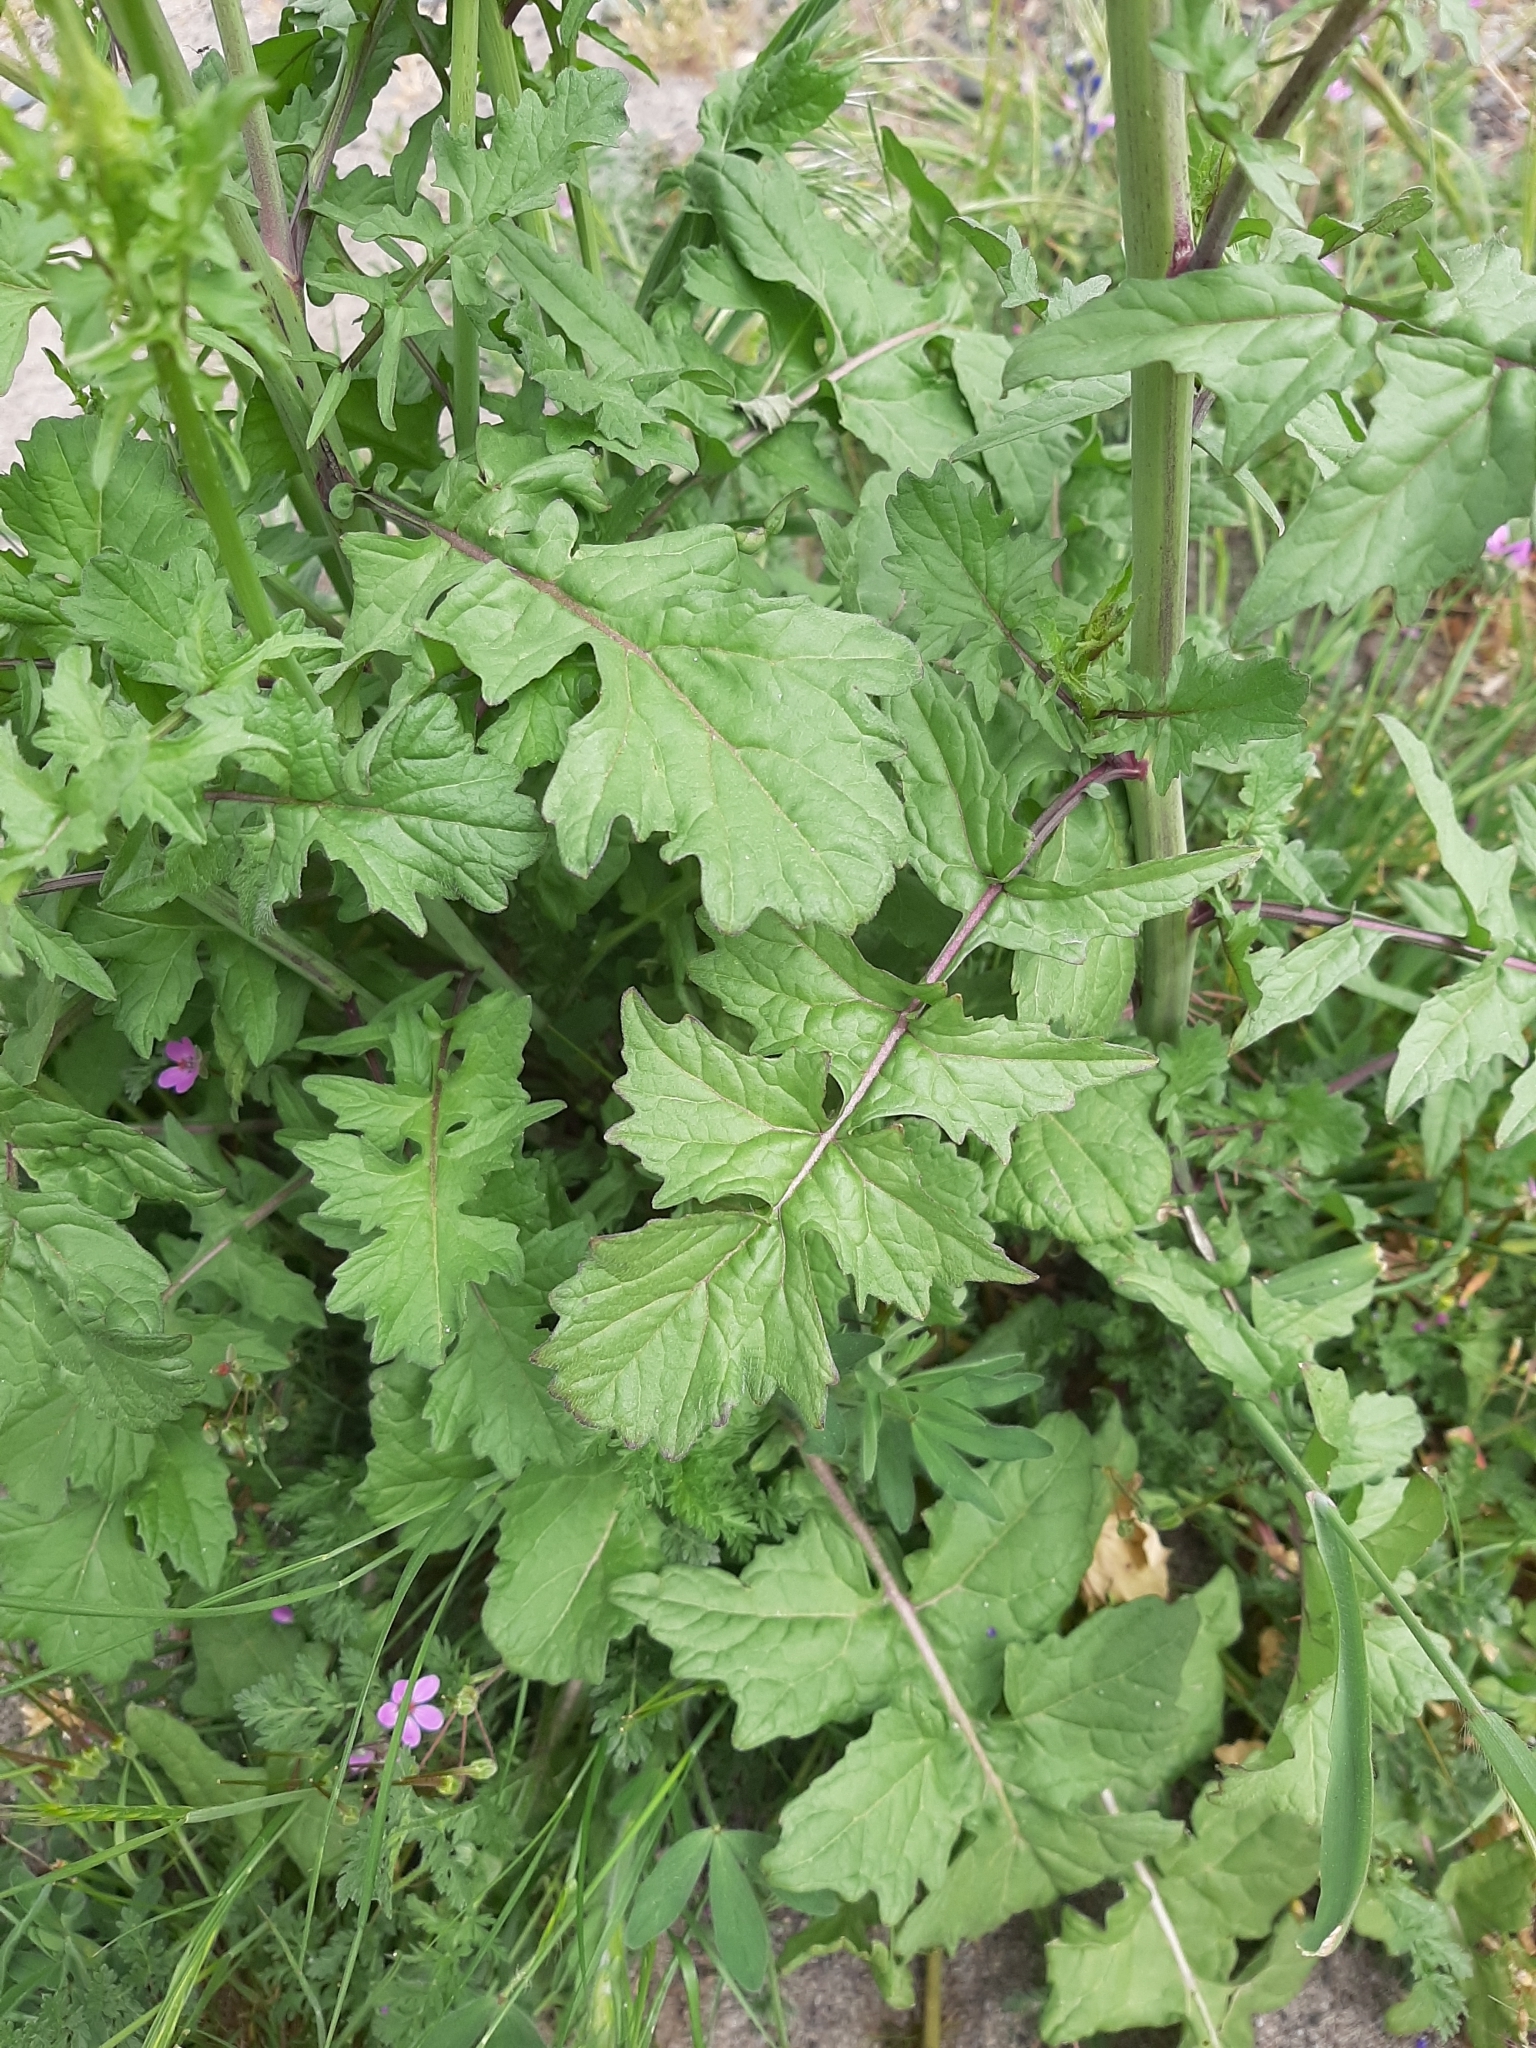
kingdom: Plantae
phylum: Tracheophyta
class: Magnoliopsida
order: Brassicales
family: Brassicaceae
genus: Sisymbrium
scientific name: Sisymbrium officinale
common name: Hedge mustard
